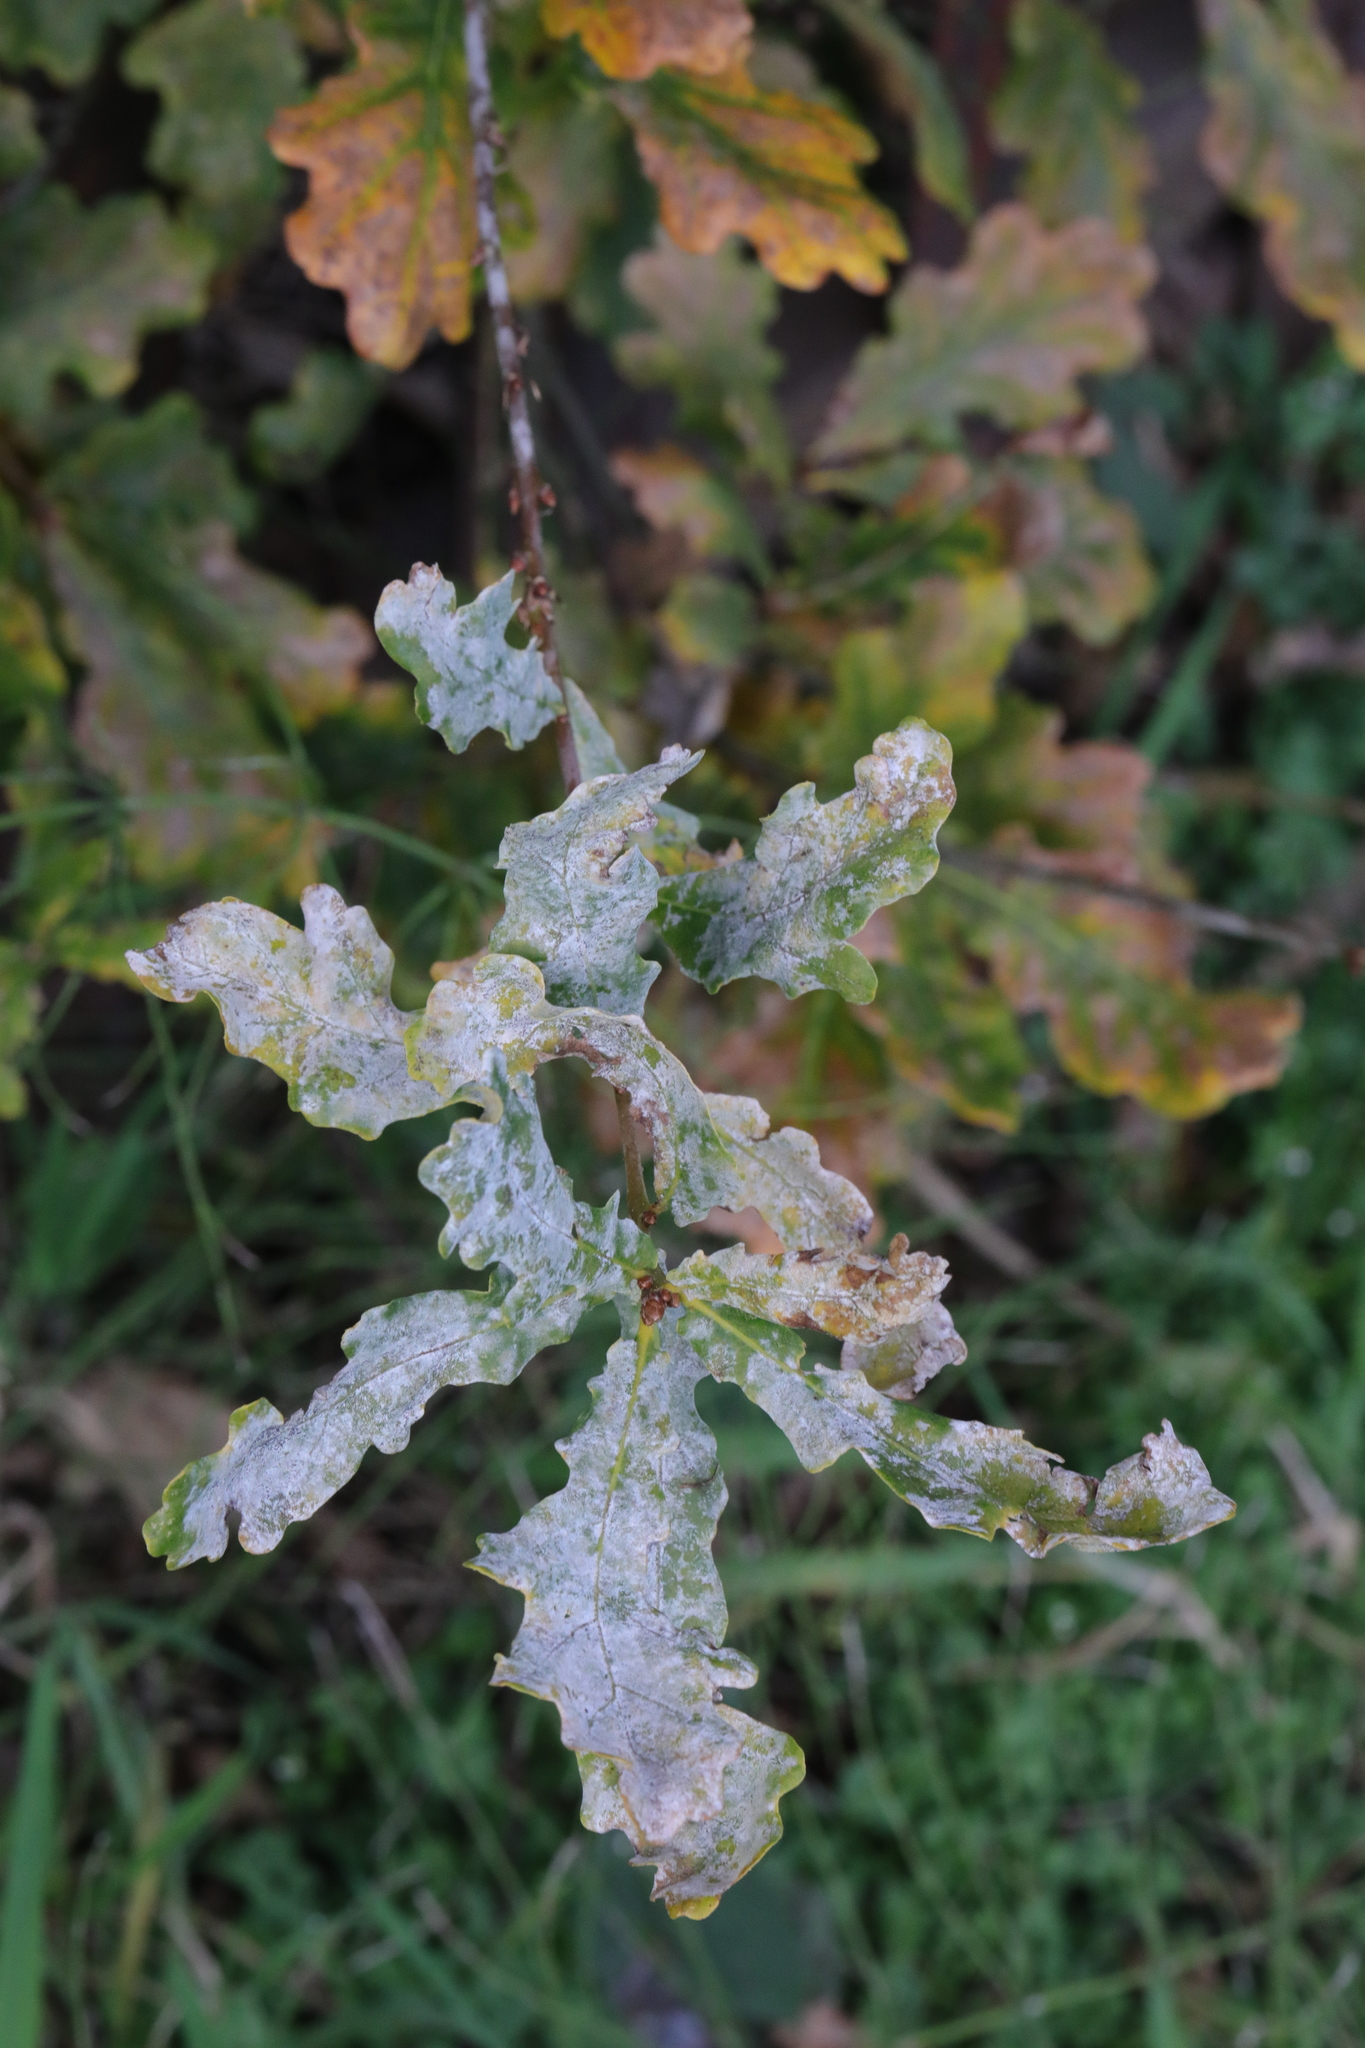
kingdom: Fungi
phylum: Ascomycota
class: Leotiomycetes
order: Helotiales
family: Erysiphaceae
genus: Erysiphe
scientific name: Erysiphe alphitoides
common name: Oak mildew
